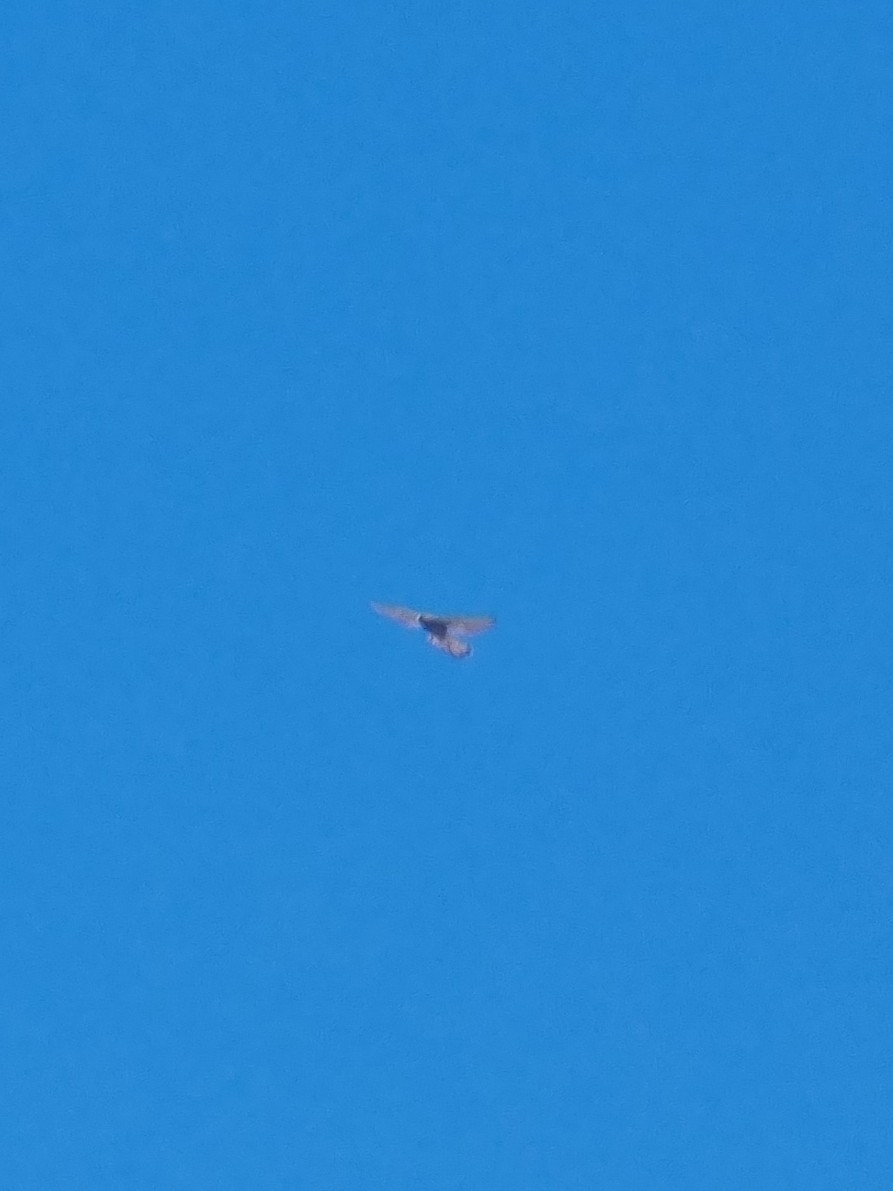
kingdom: Animalia
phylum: Chordata
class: Aves
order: Falconiformes
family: Falconidae
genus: Falco
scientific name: Falco tinnunculus
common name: Common kestrel
